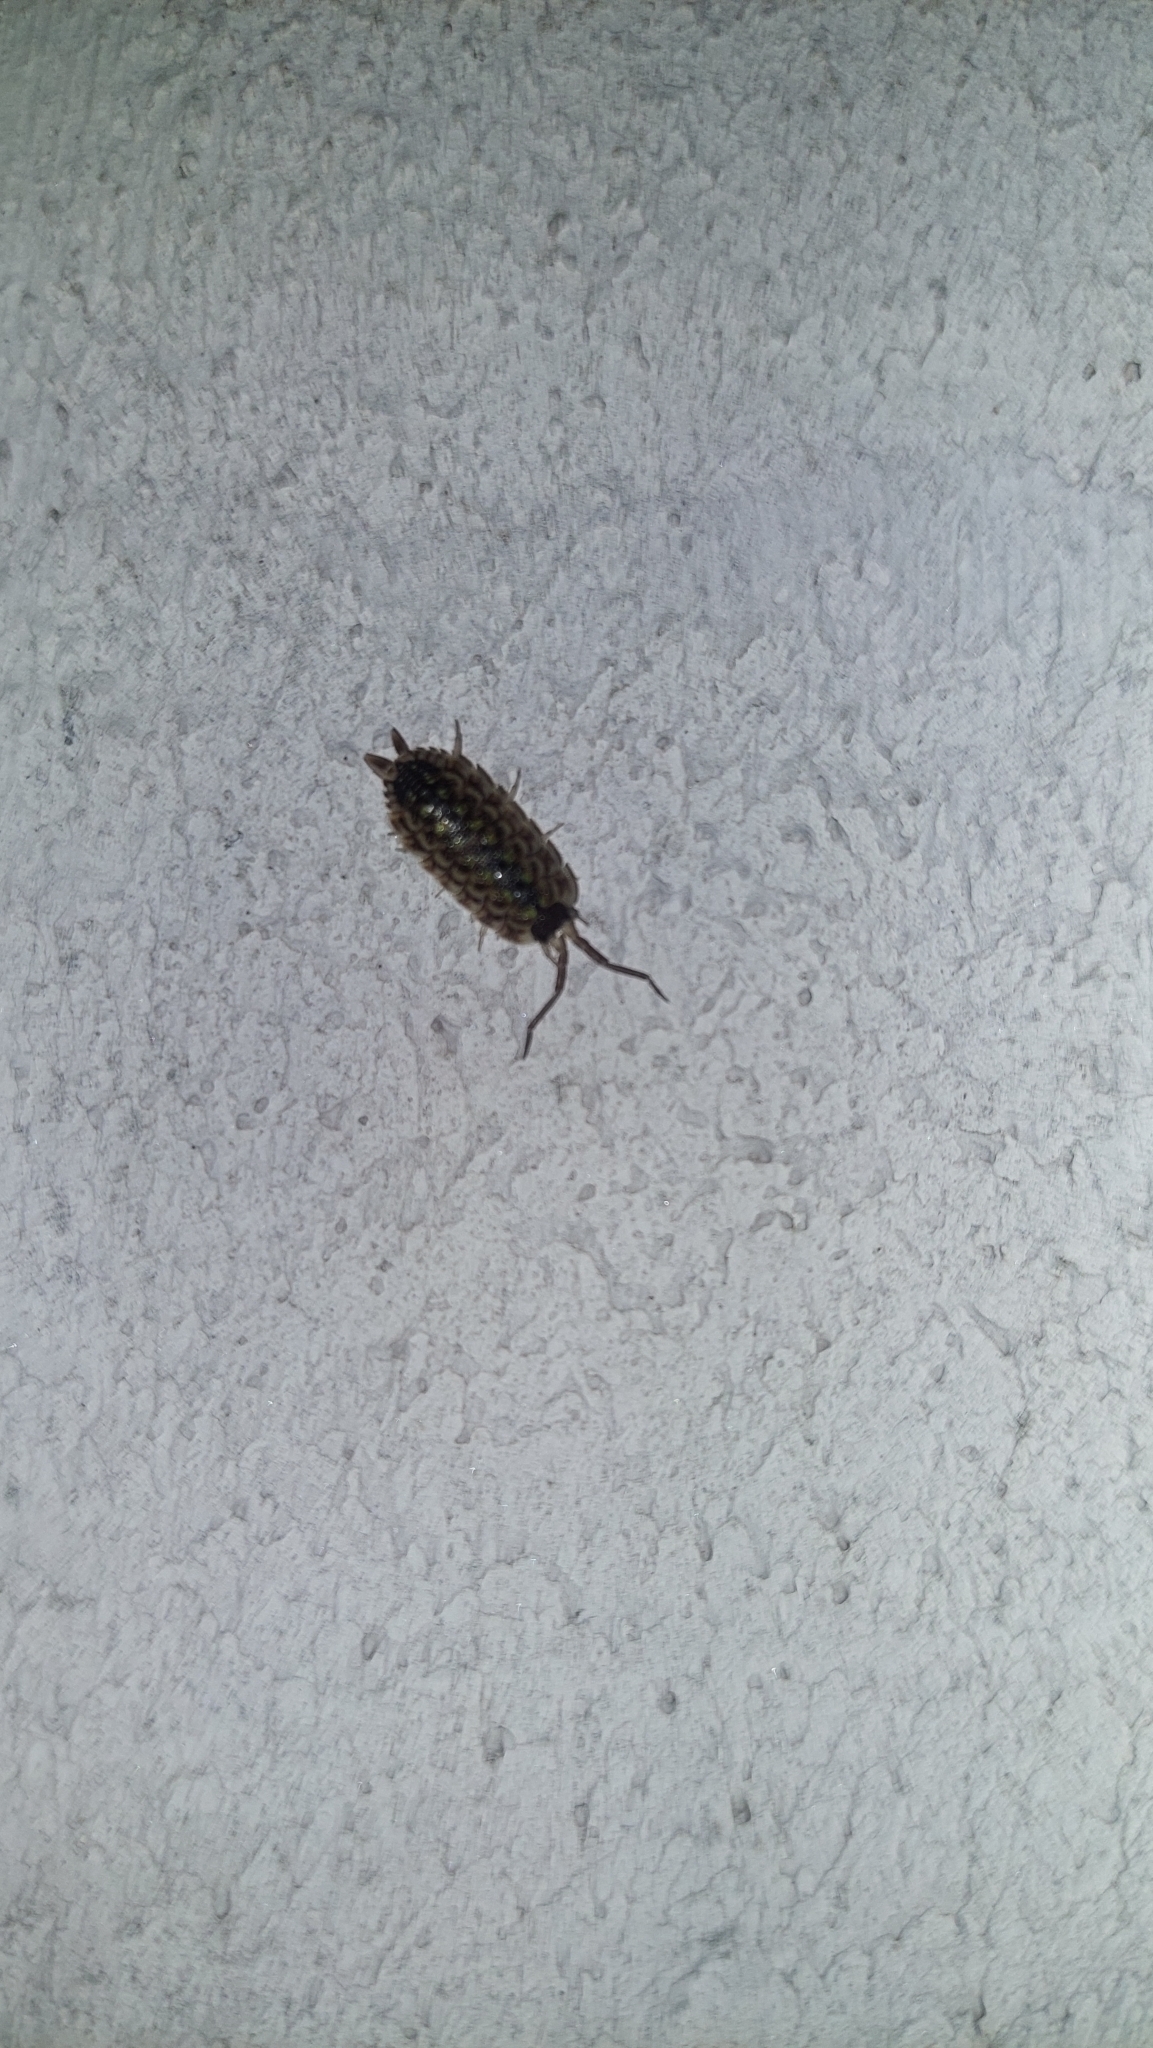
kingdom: Animalia
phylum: Arthropoda
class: Malacostraca
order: Isopoda
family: Porcellionidae
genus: Porcellio
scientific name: Porcellio spinicornis
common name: Painted woodlouse
